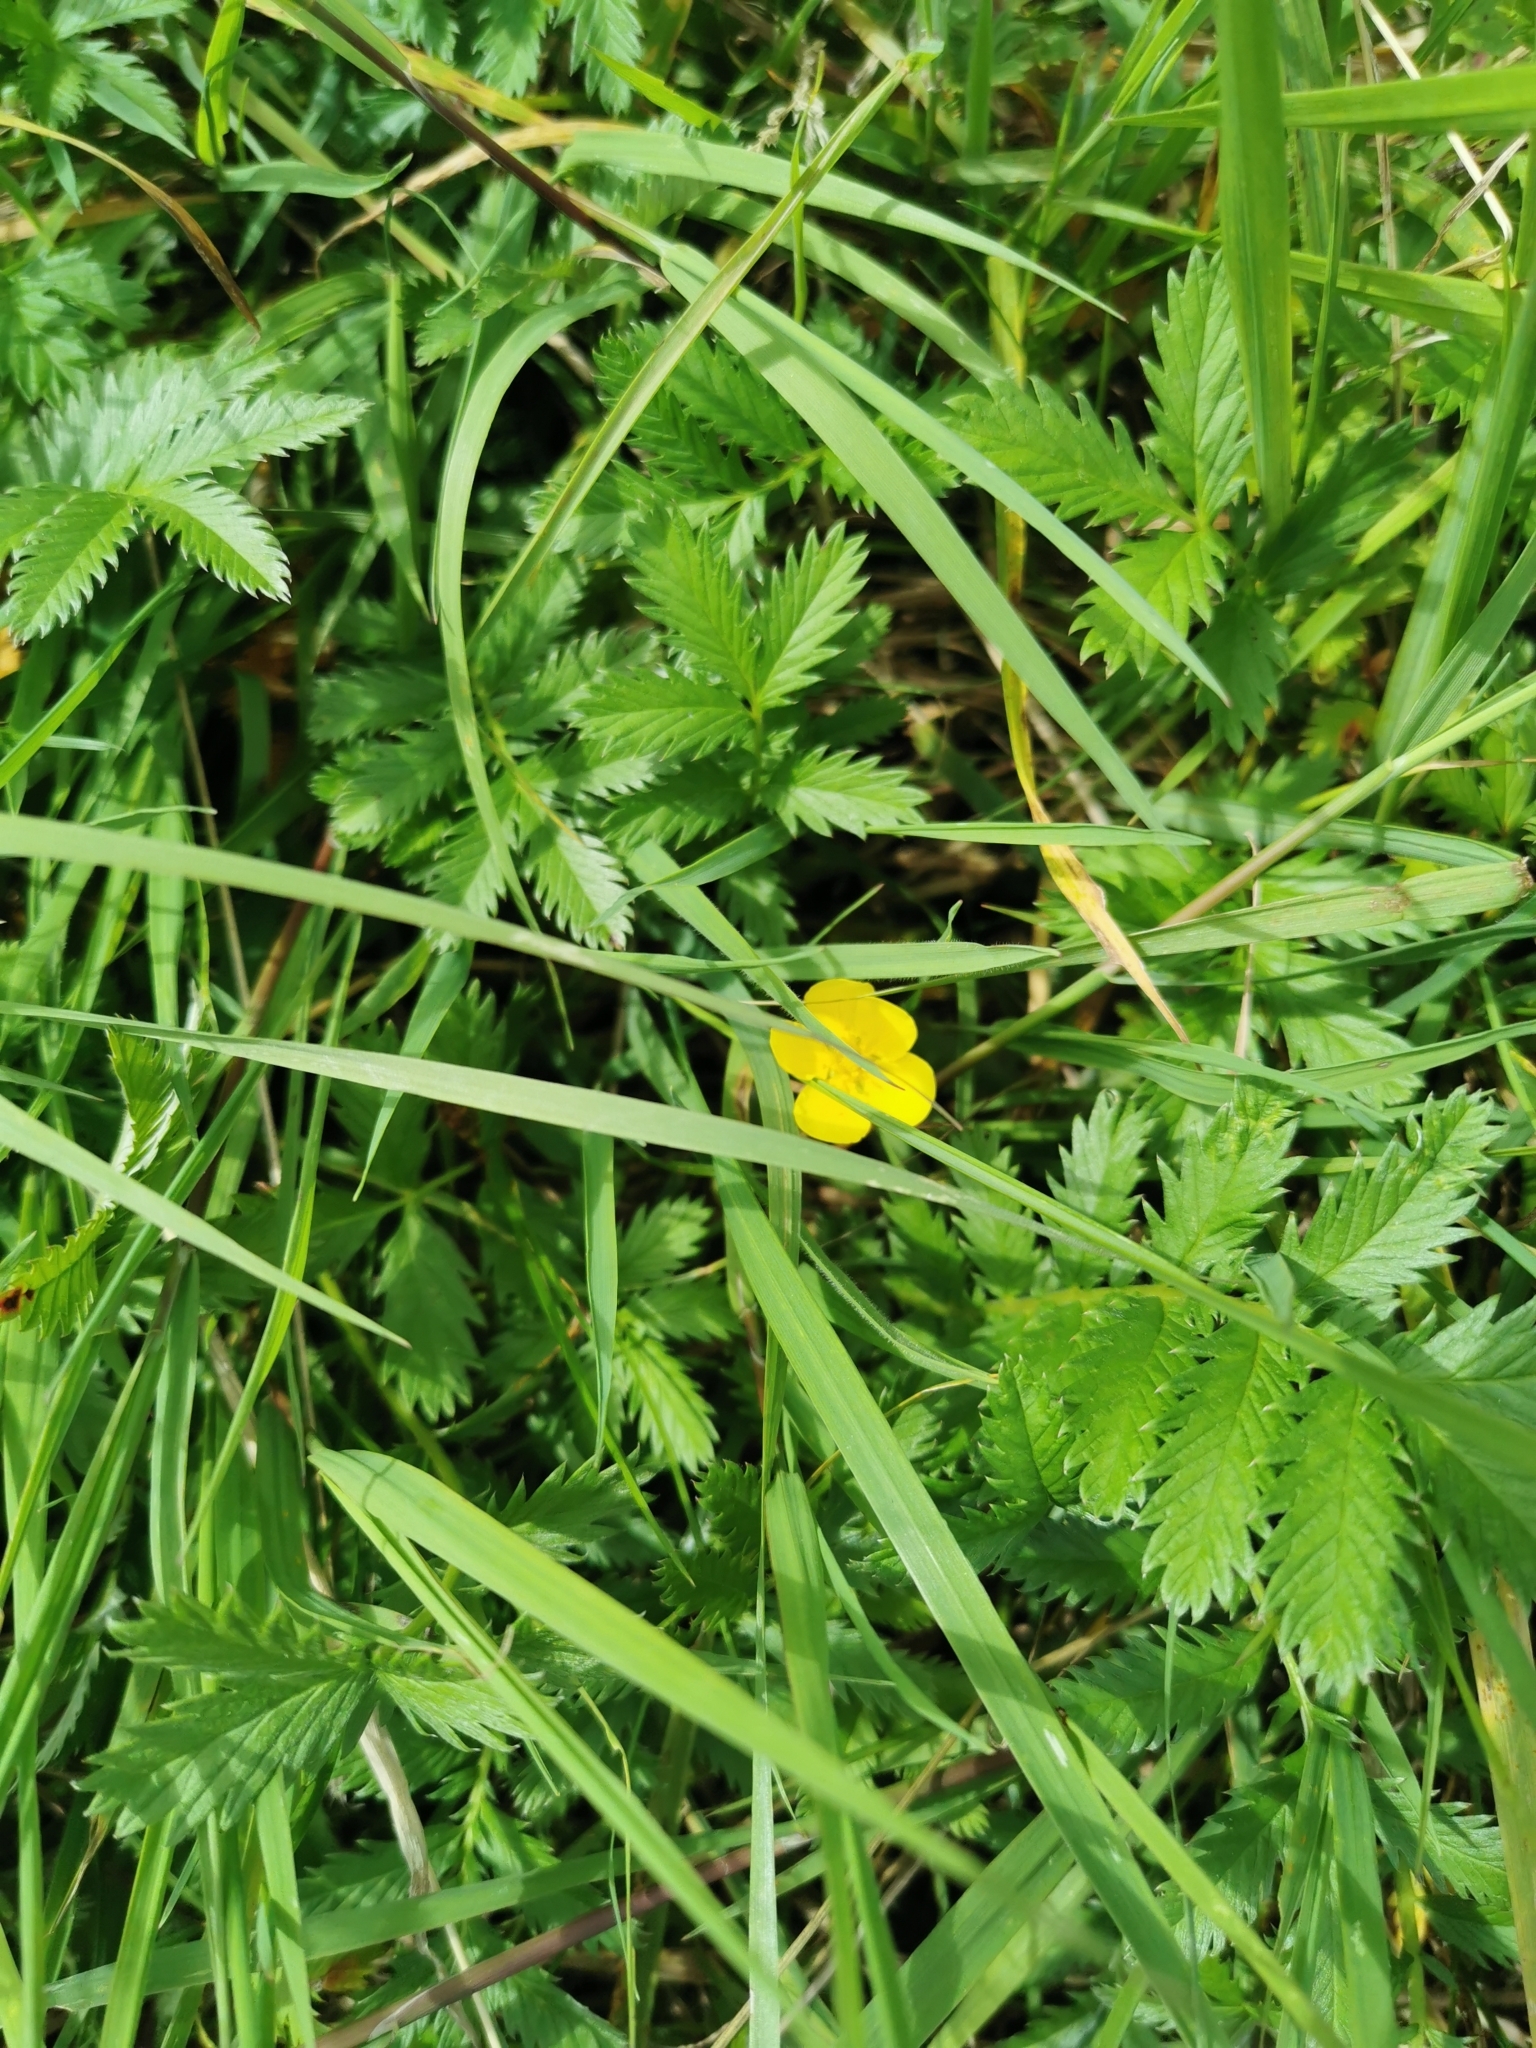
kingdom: Plantae
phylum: Tracheophyta
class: Magnoliopsida
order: Rosales
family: Rosaceae
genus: Argentina
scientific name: Argentina anserina
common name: Common silverweed
